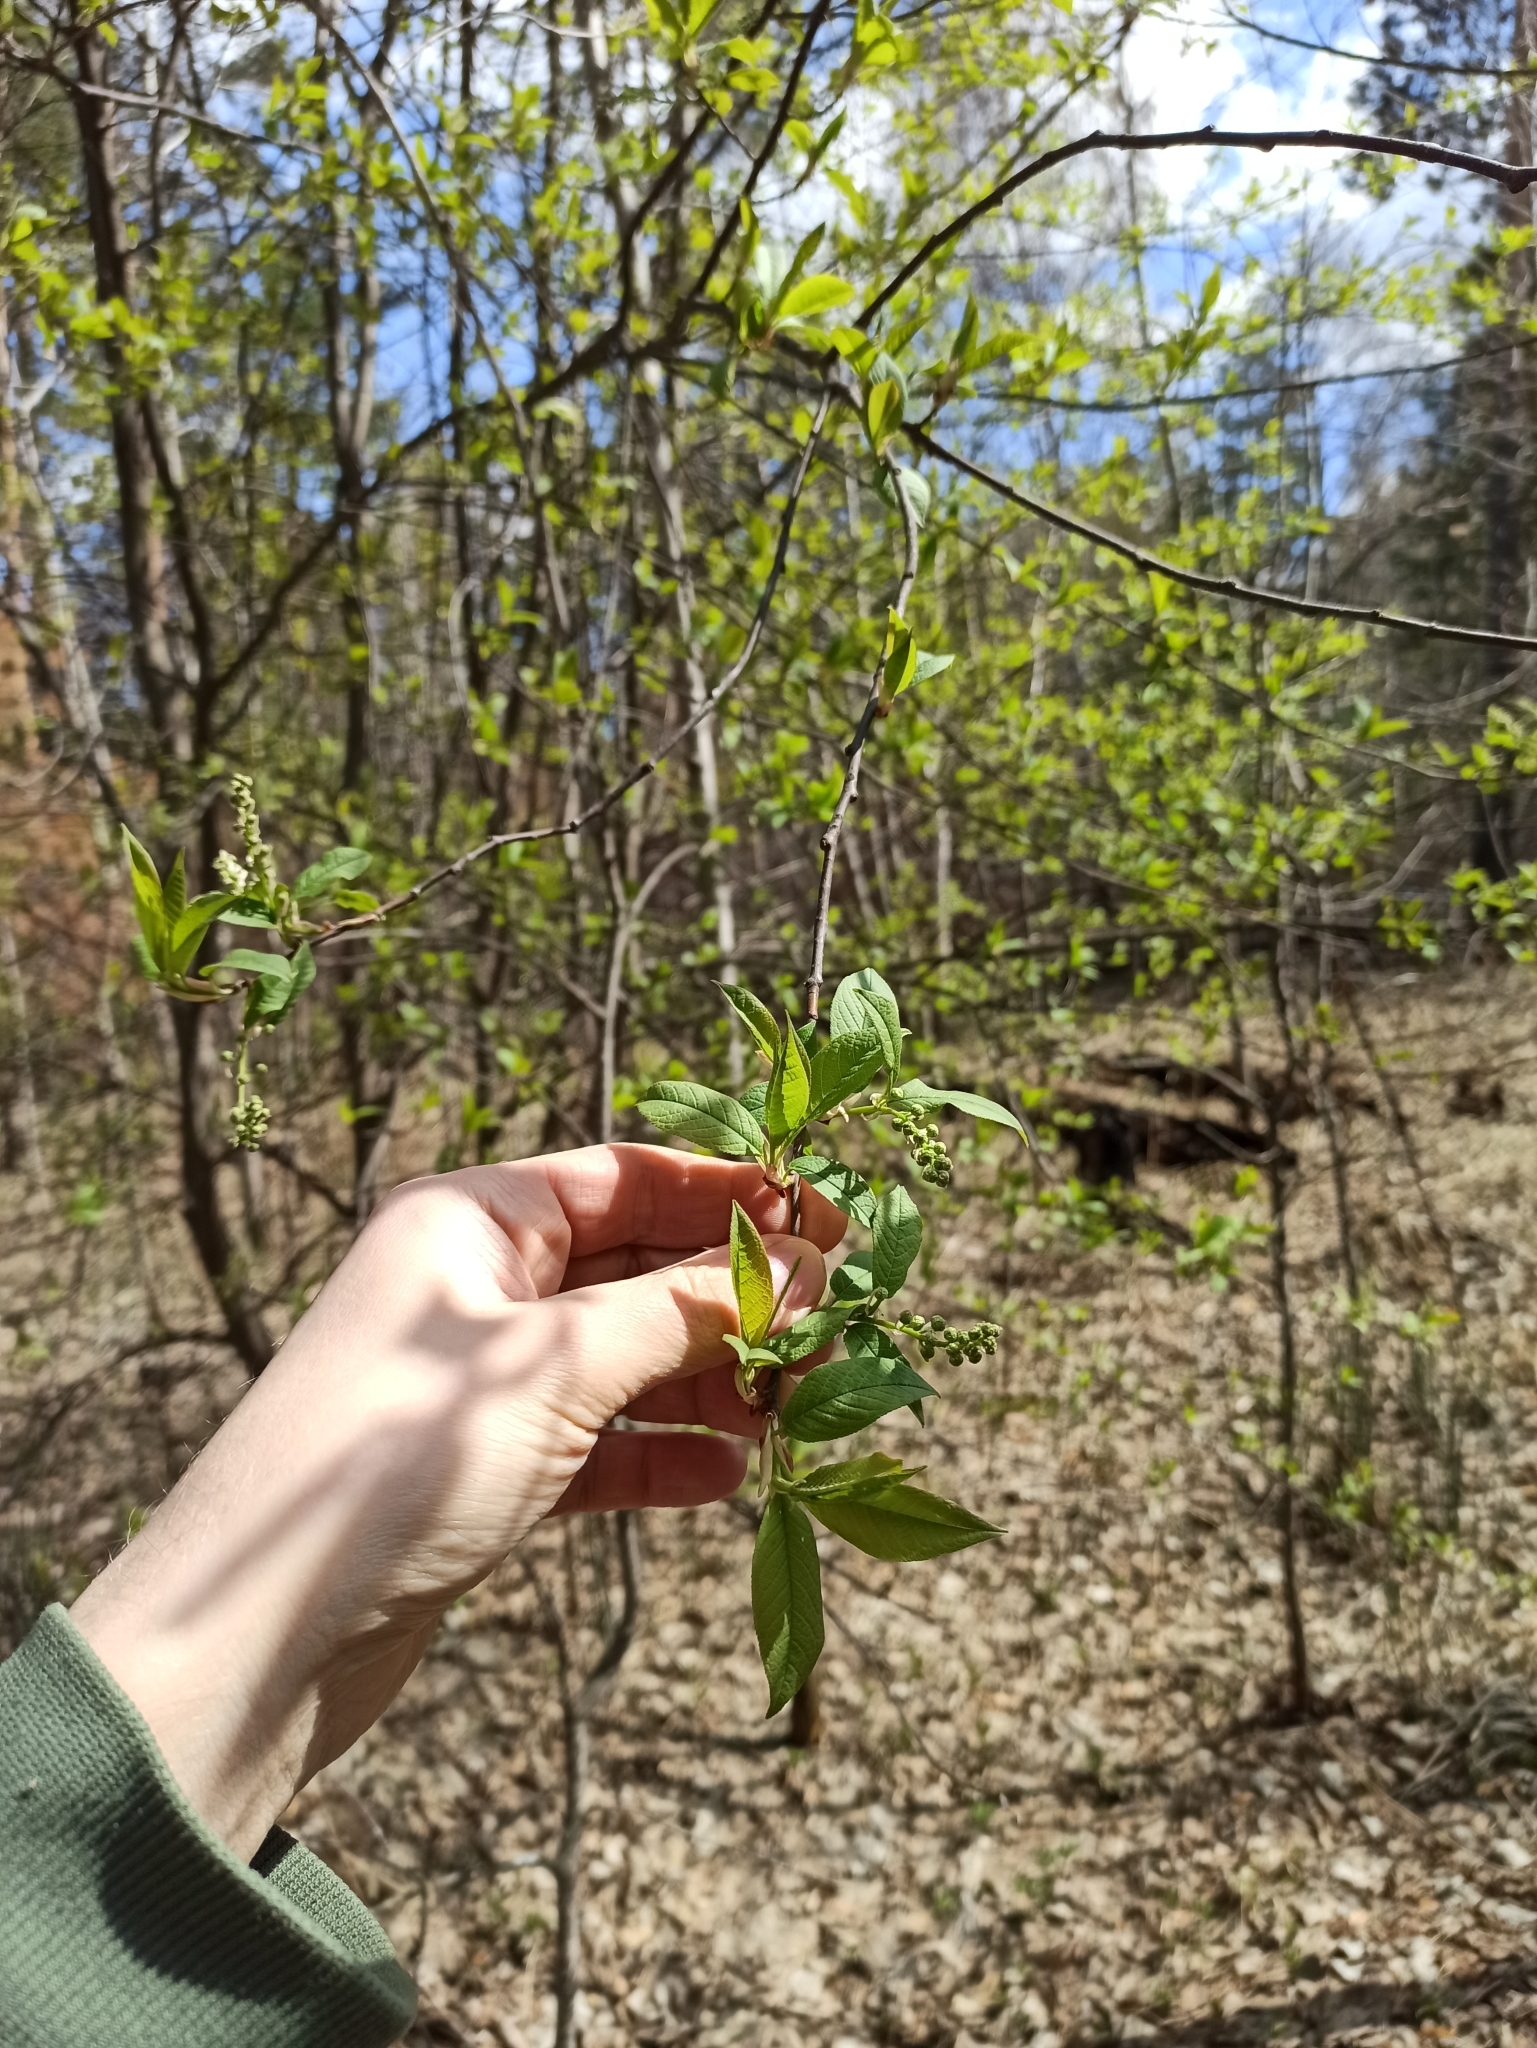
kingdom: Plantae
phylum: Tracheophyta
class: Magnoliopsida
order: Rosales
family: Rosaceae
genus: Prunus
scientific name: Prunus padus
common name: Bird cherry
